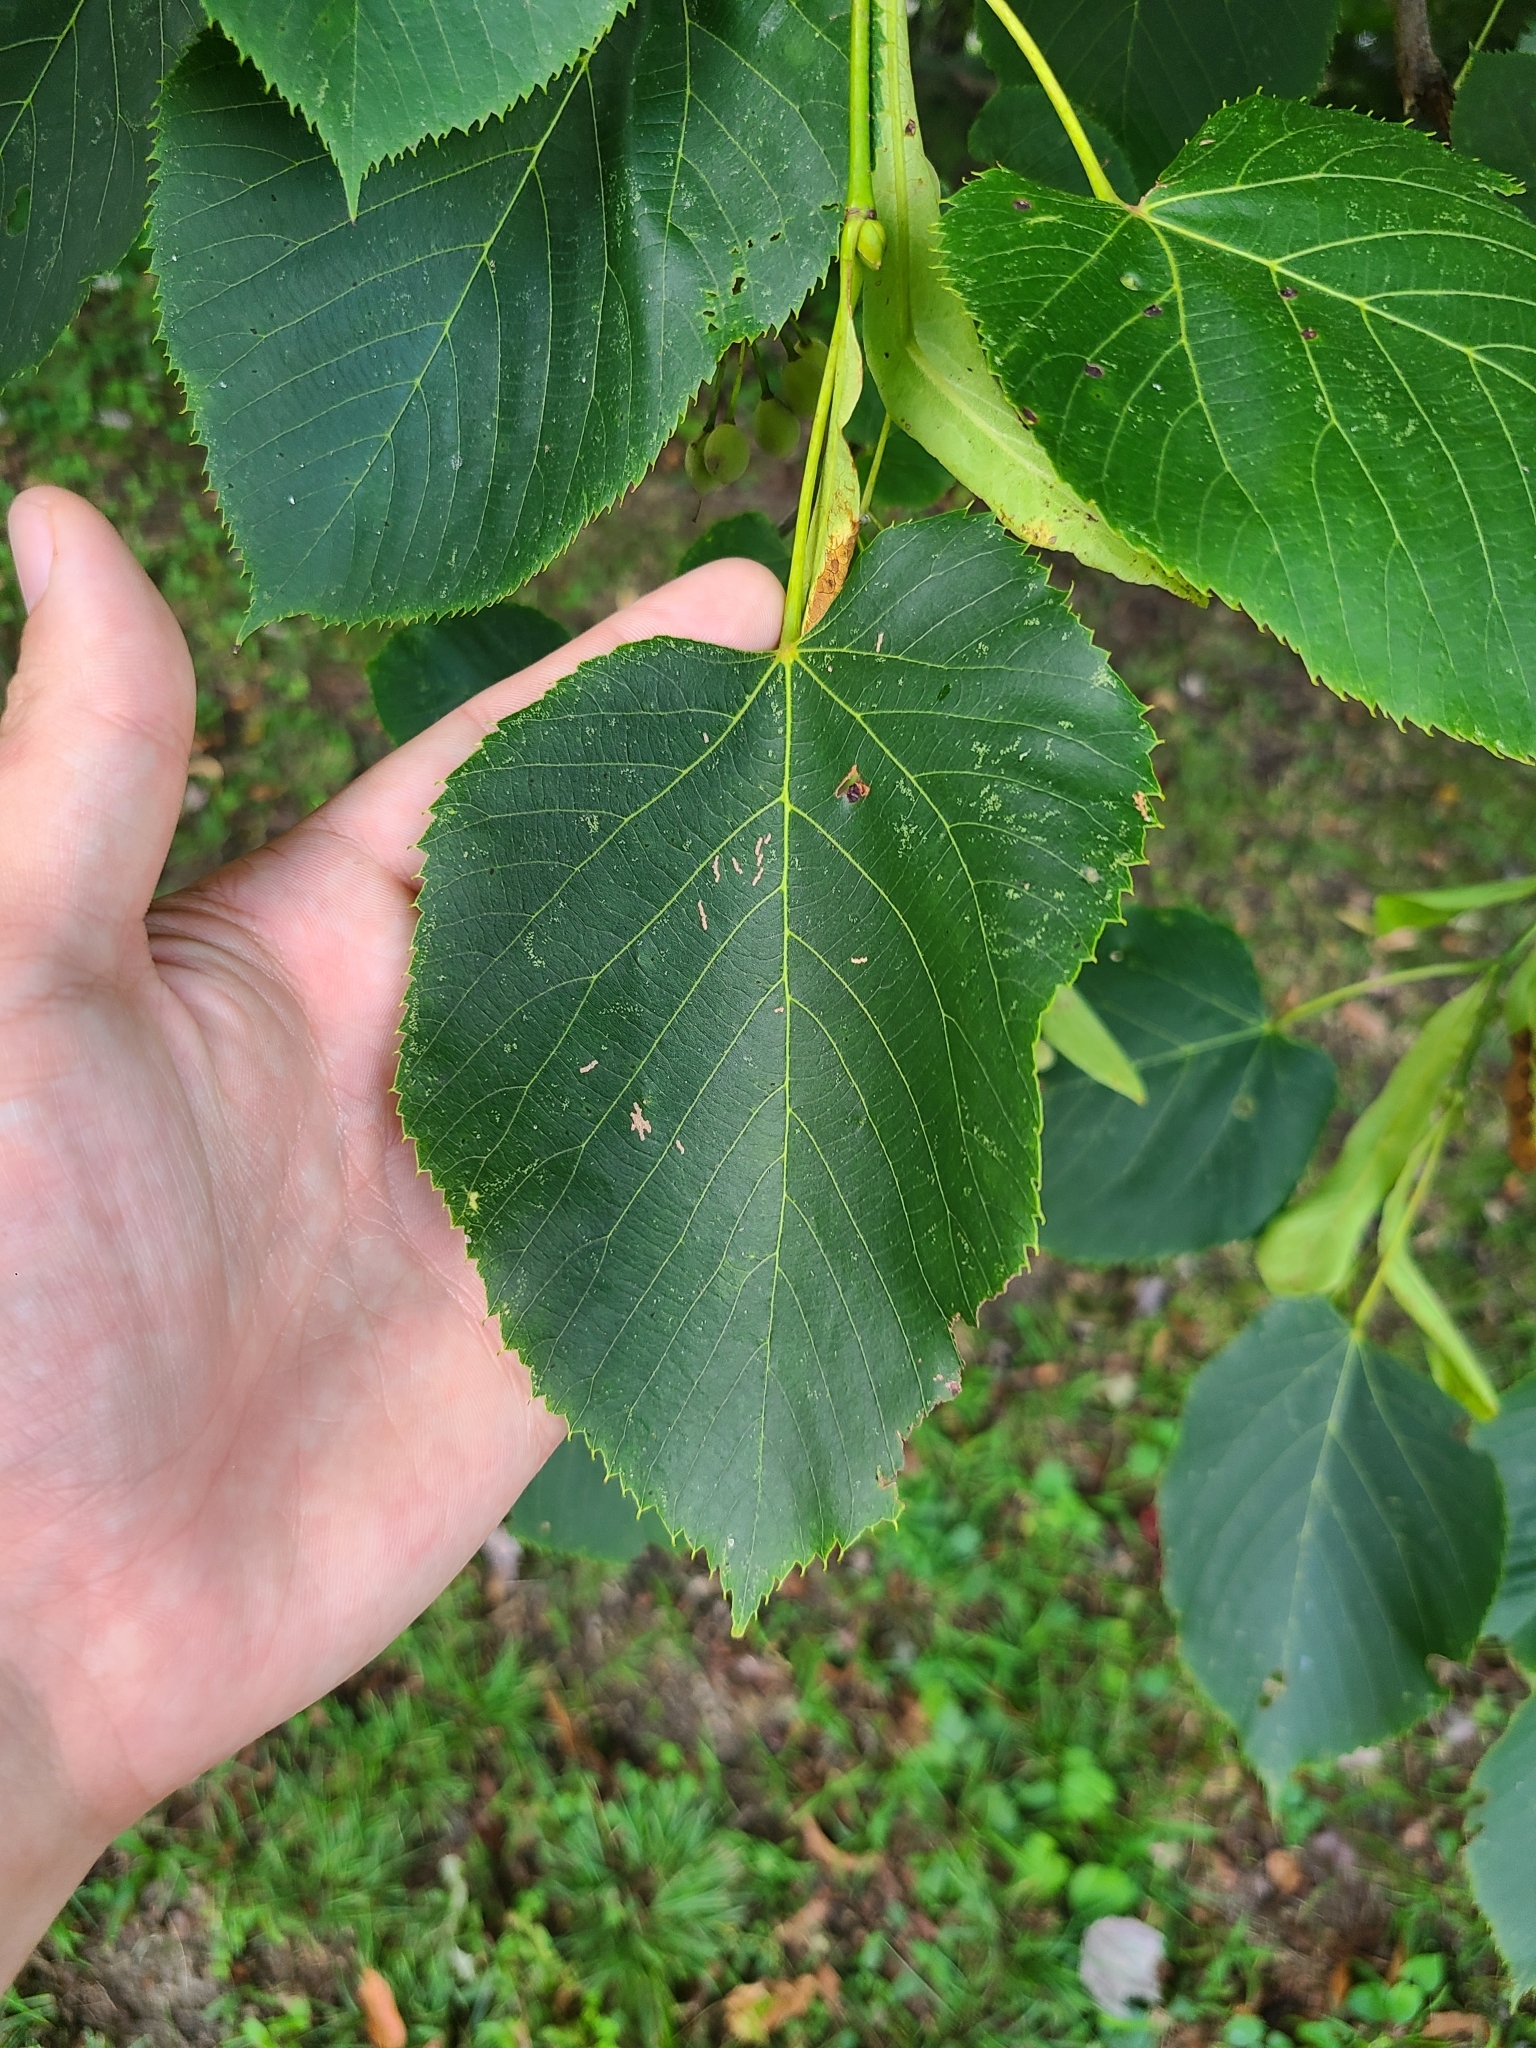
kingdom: Plantae
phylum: Tracheophyta
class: Magnoliopsida
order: Malvales
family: Malvaceae
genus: Tilia
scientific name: Tilia americana
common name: Basswood
